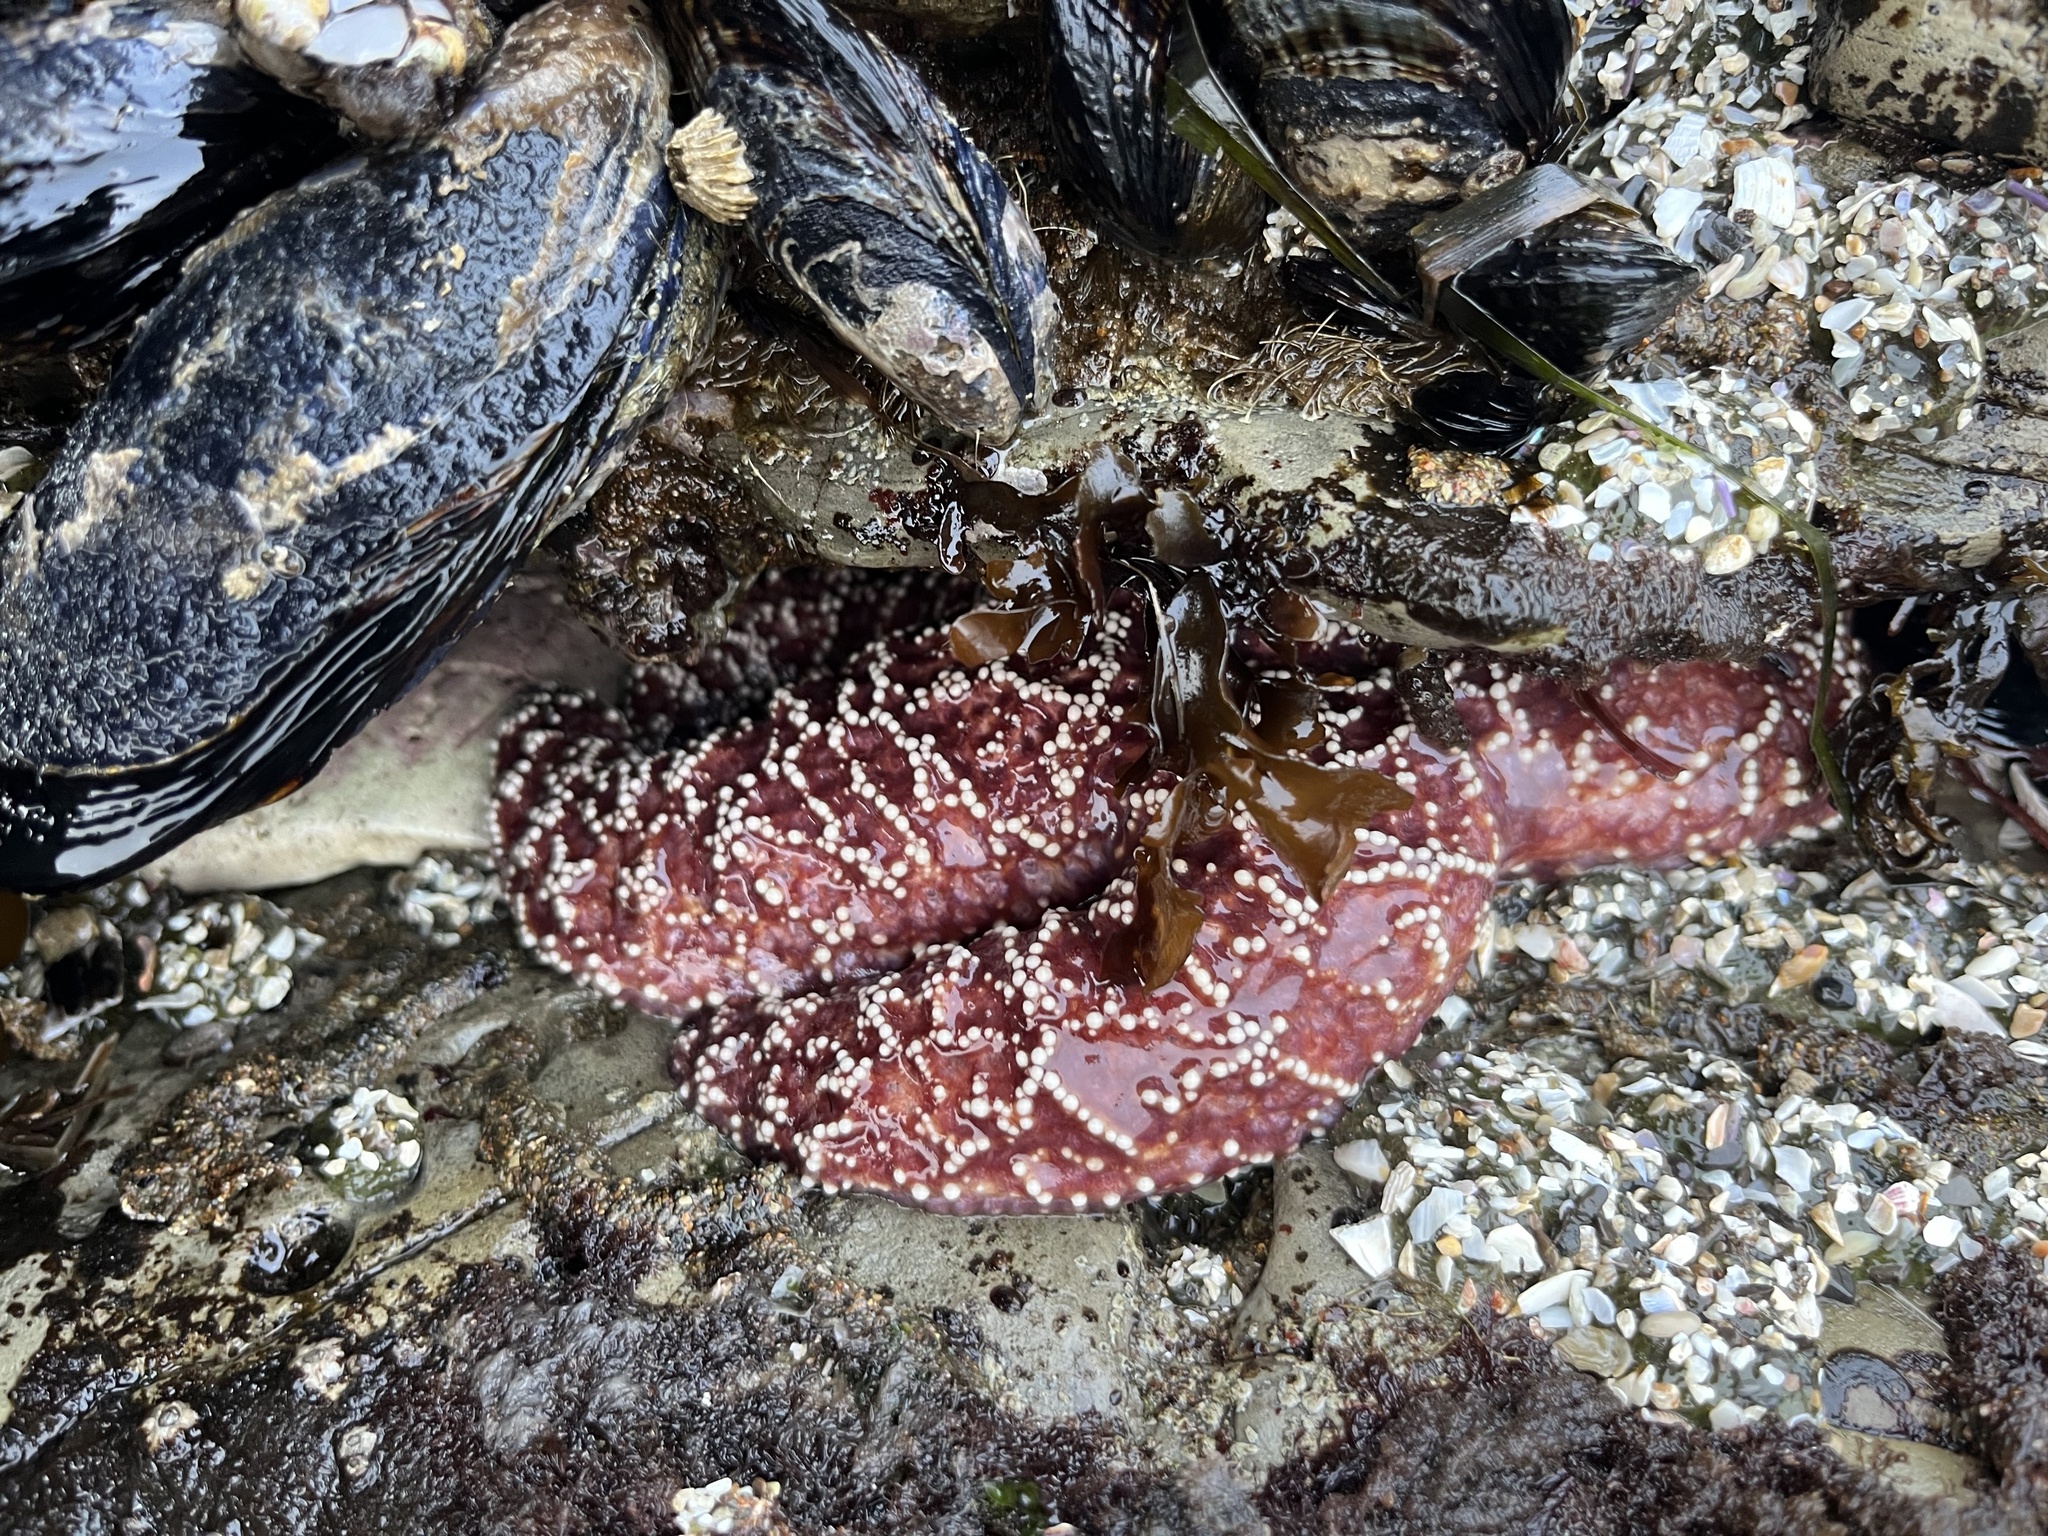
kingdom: Animalia
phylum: Echinodermata
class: Asteroidea
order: Forcipulatida
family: Asteriidae
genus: Pisaster
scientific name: Pisaster ochraceus
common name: Ochre stars
